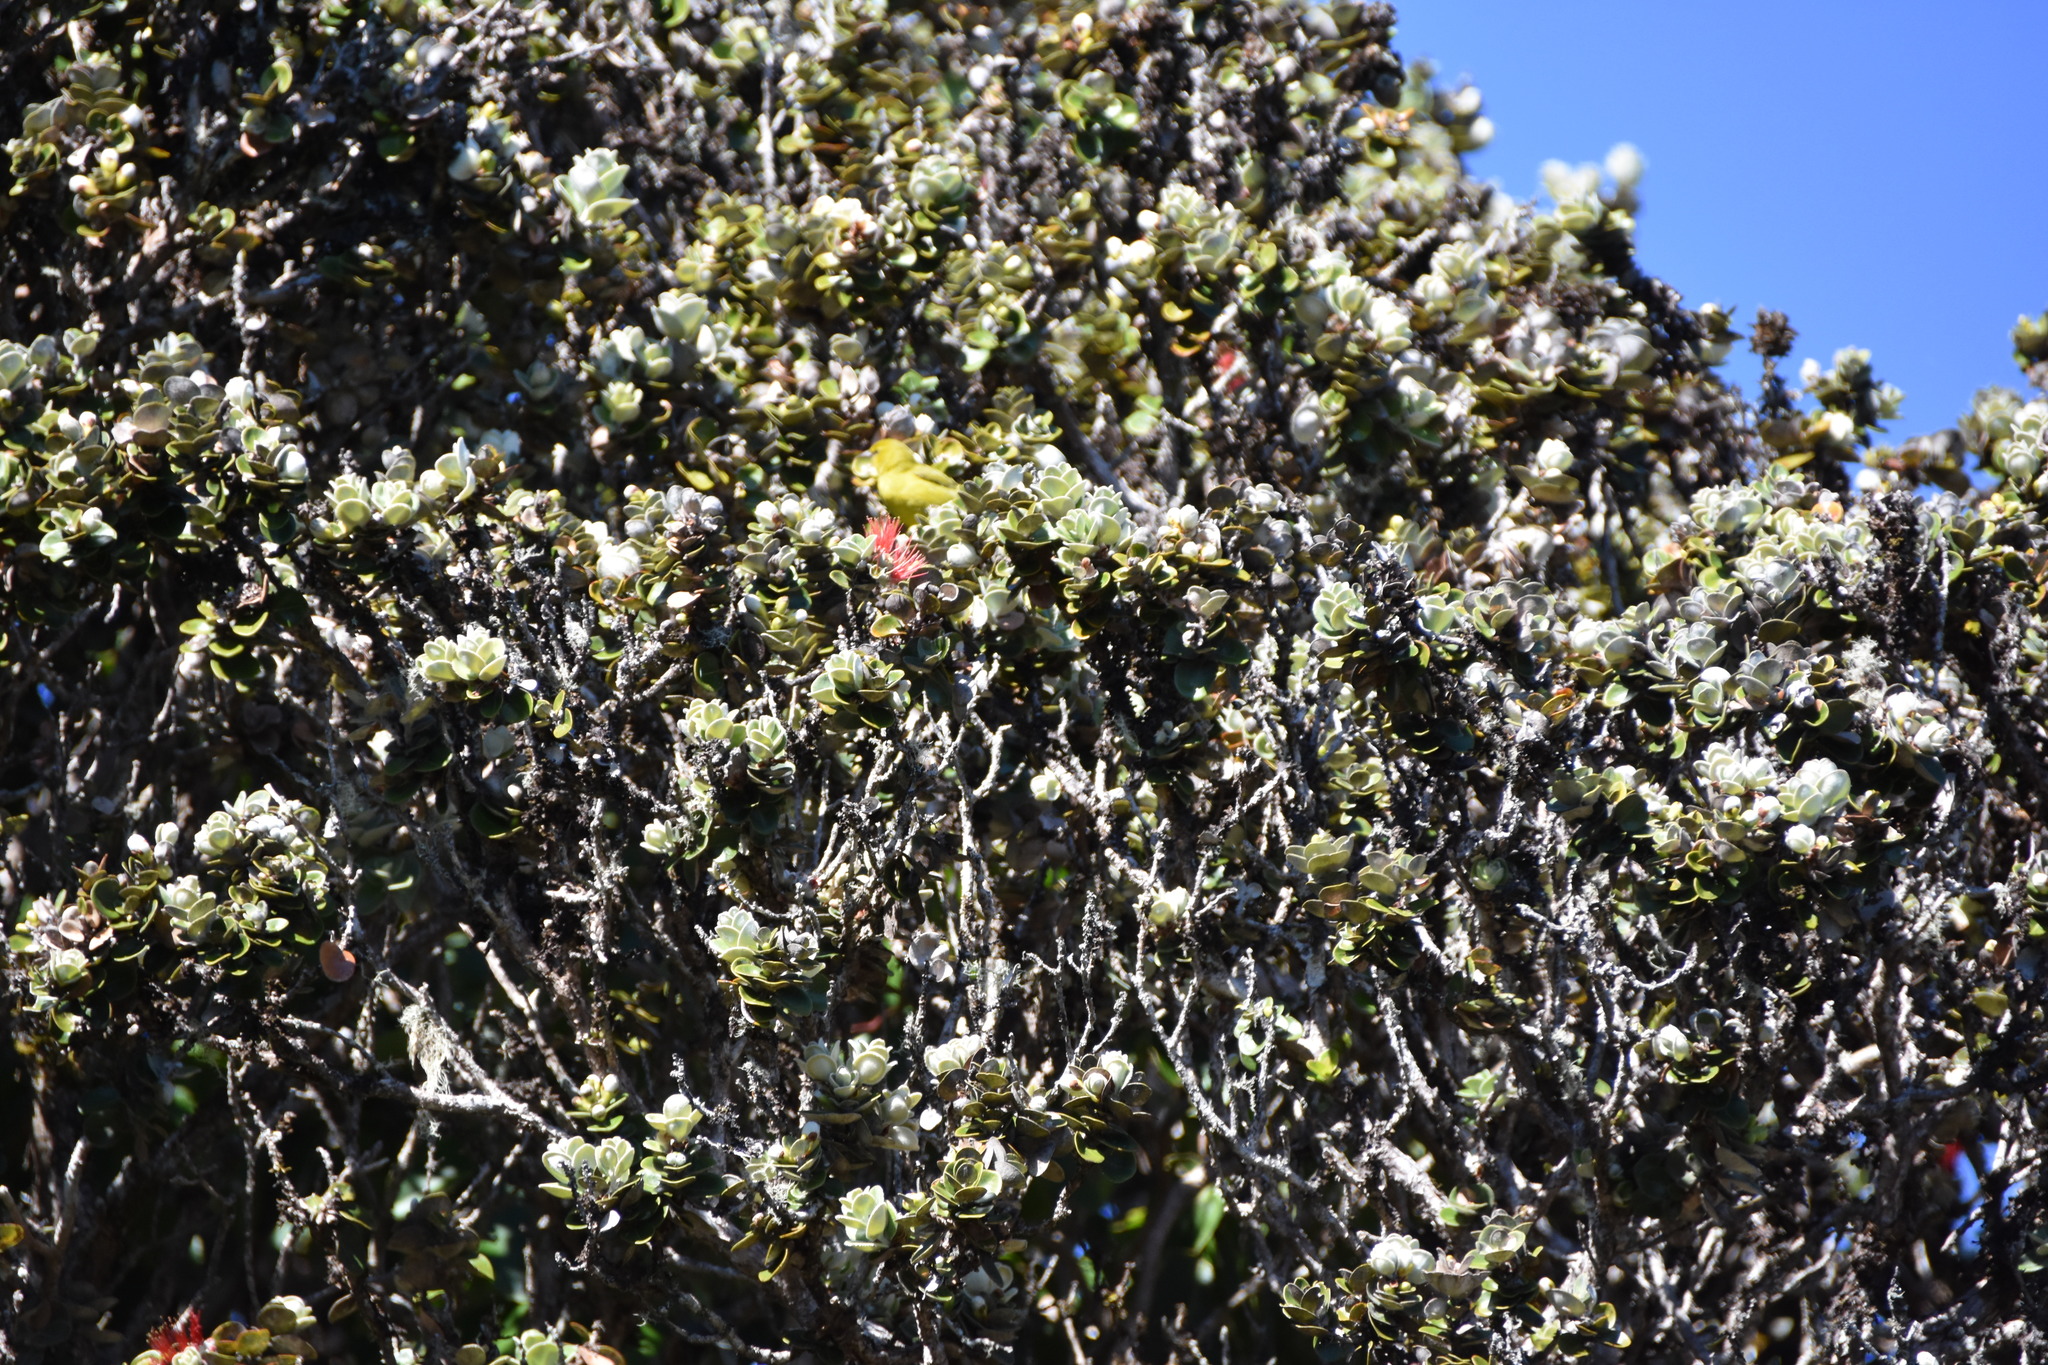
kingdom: Animalia
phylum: Chordata
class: Aves
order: Passeriformes
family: Fringillidae
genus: Chlorodrepanis
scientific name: Chlorodrepanis virens
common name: Hawaii amakihi
